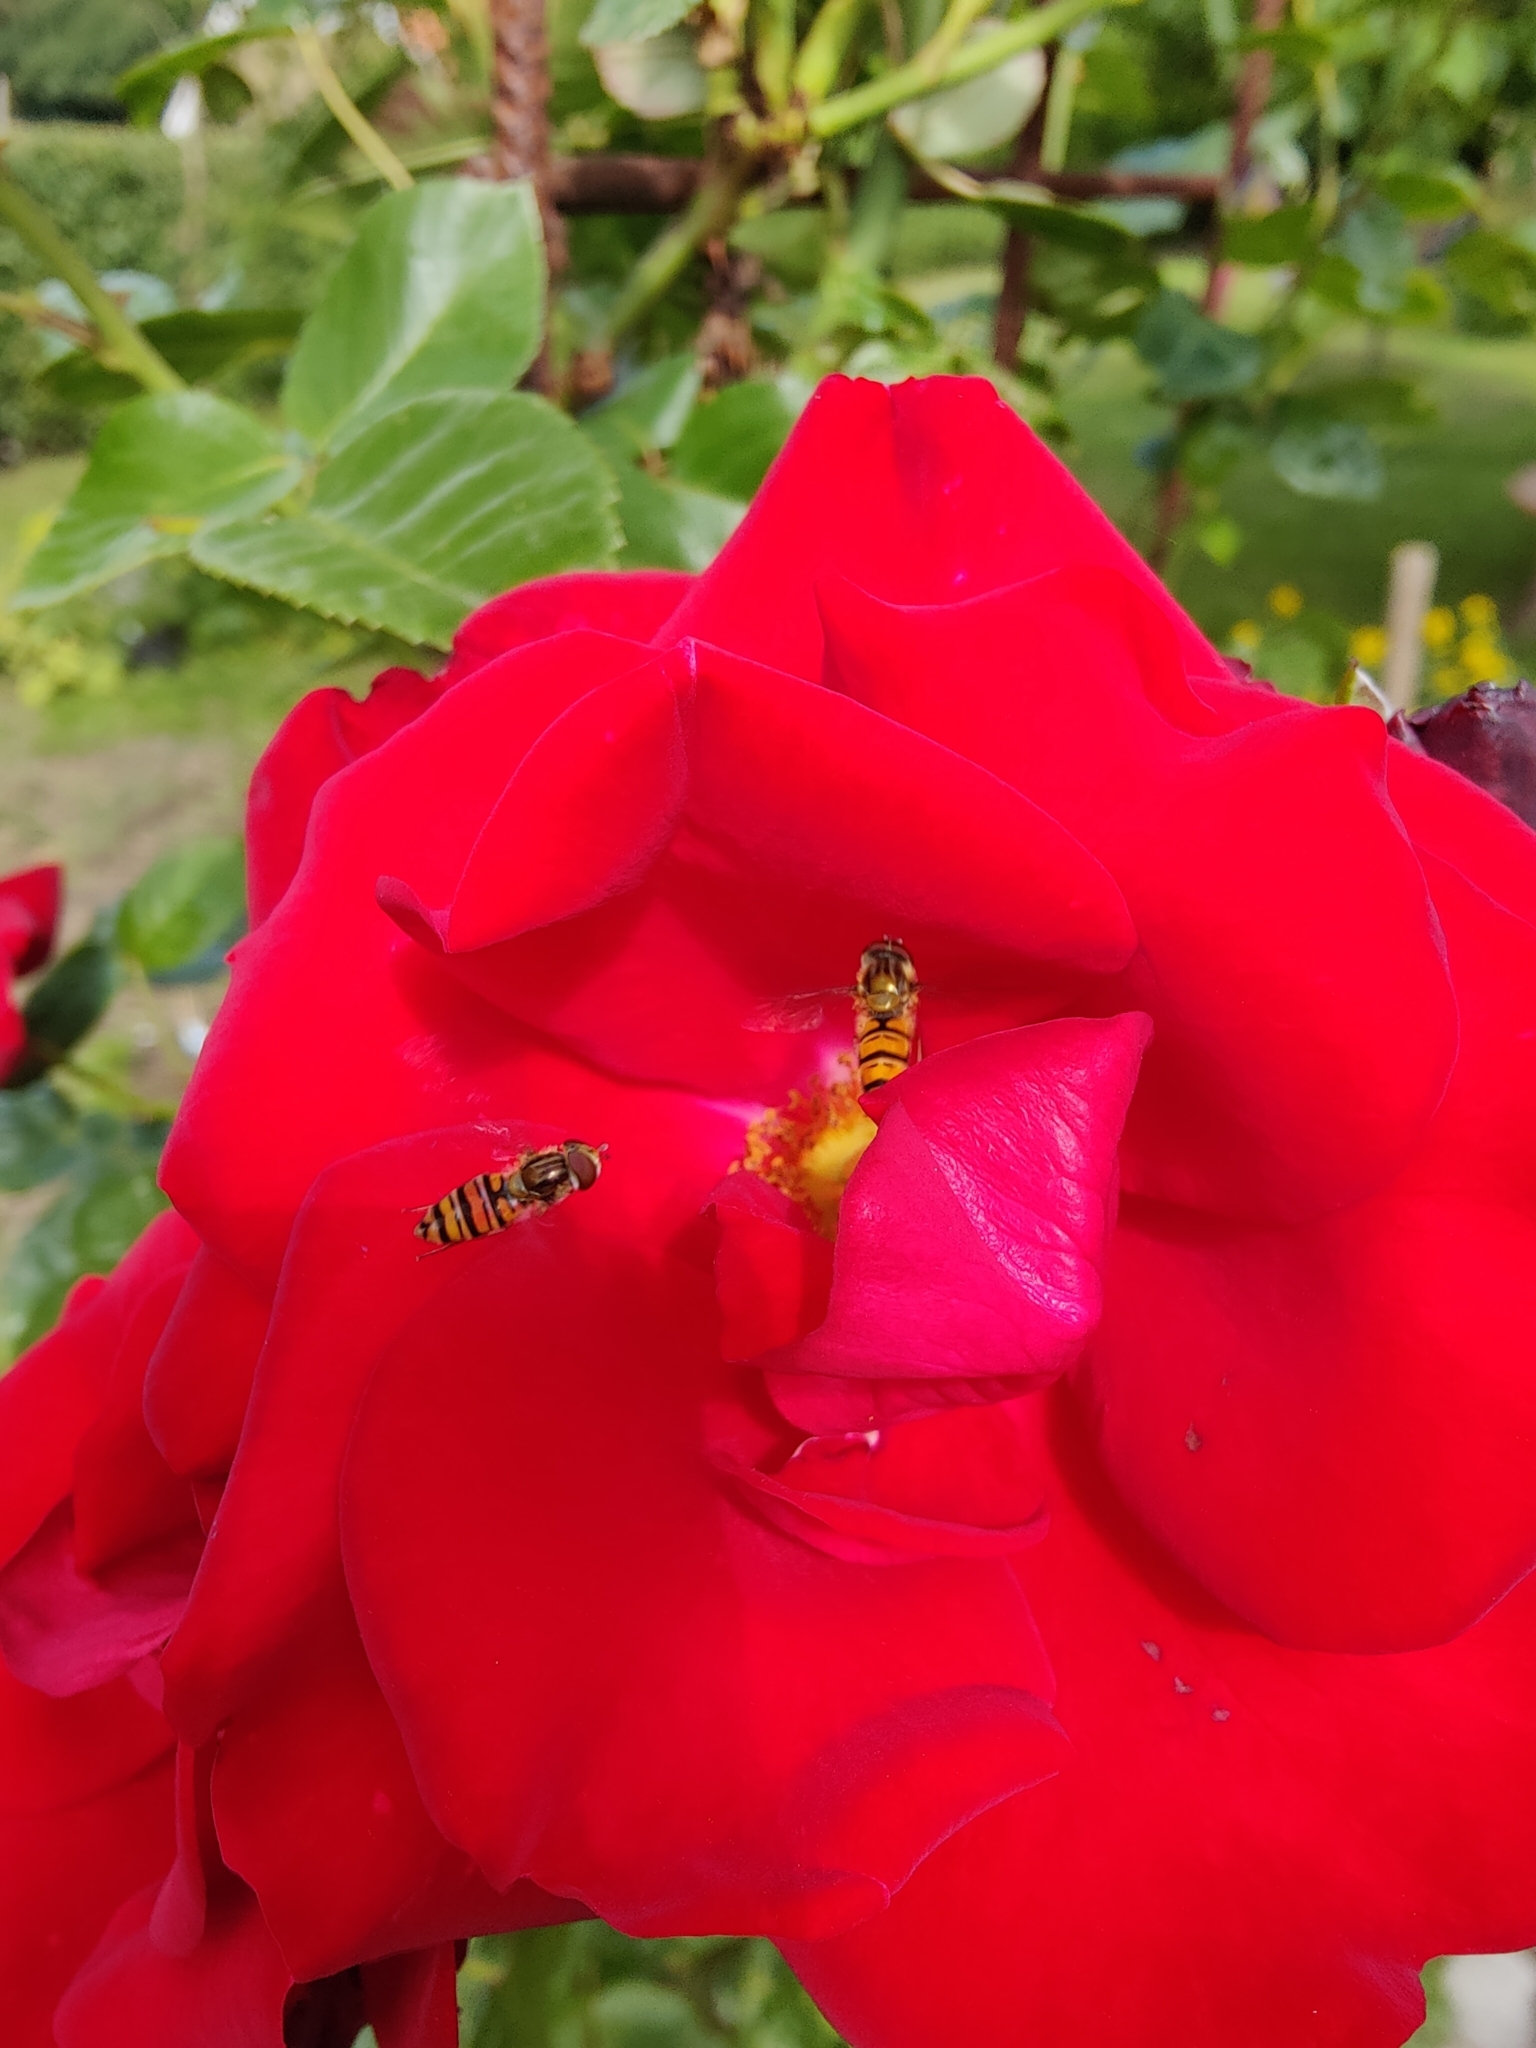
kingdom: Animalia
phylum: Arthropoda
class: Insecta
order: Diptera
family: Syrphidae
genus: Episyrphus
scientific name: Episyrphus balteatus
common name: Marmalade hoverfly
